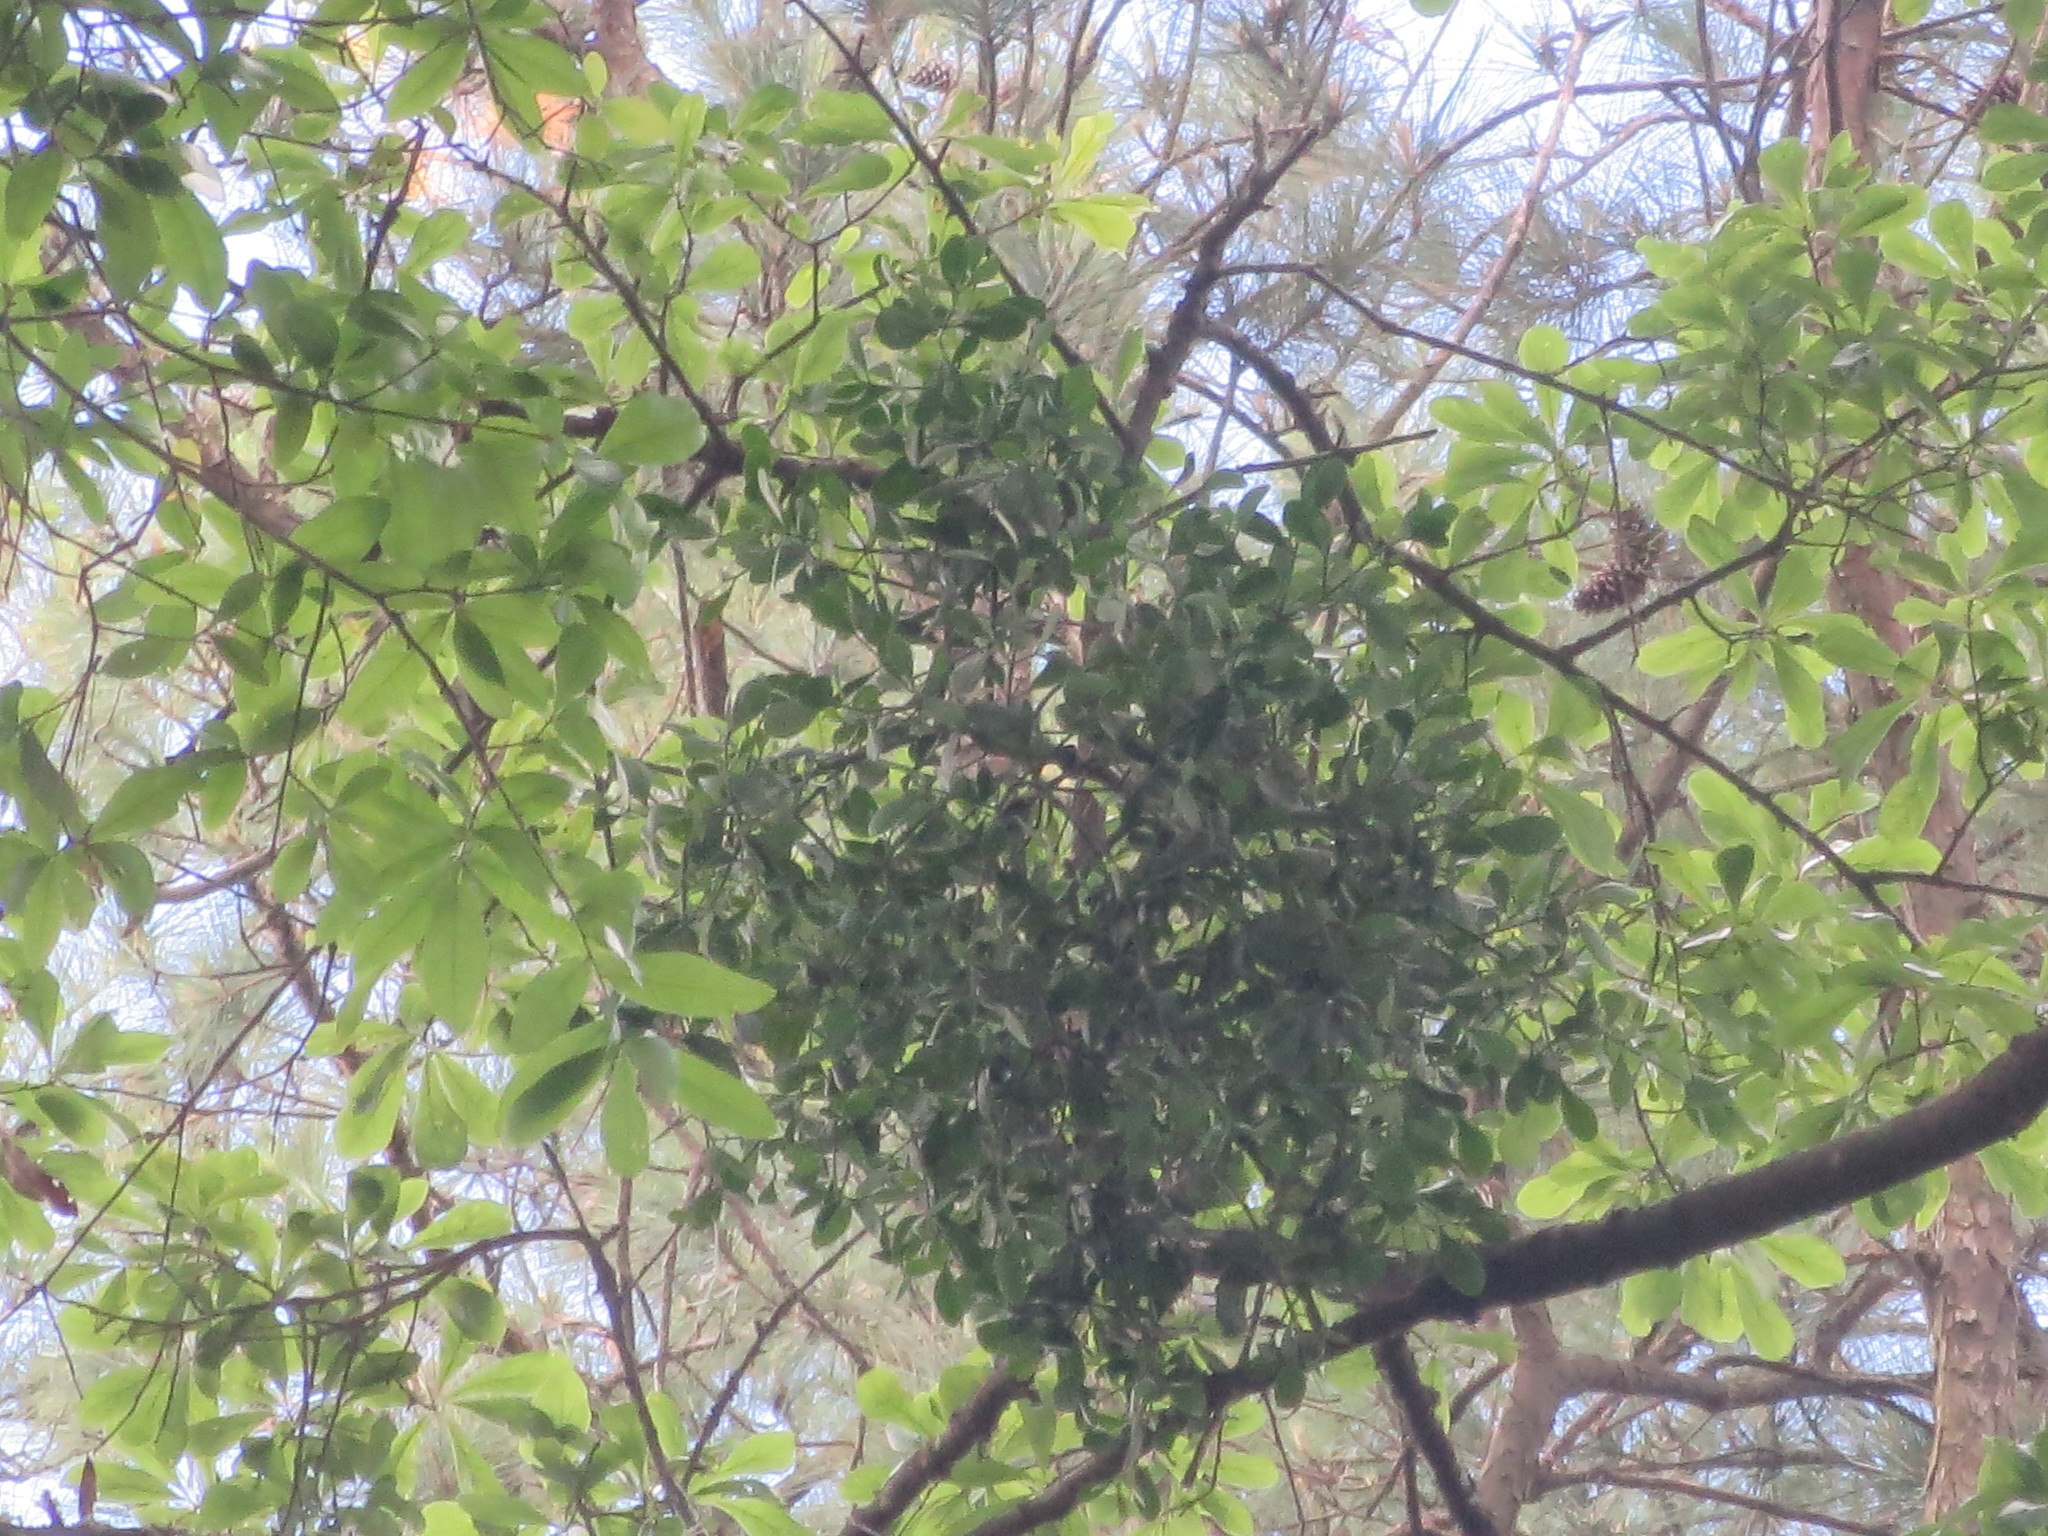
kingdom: Plantae
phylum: Tracheophyta
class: Magnoliopsida
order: Santalales
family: Viscaceae
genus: Phoradendron
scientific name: Phoradendron leucarpum
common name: Pacific mistletoe
